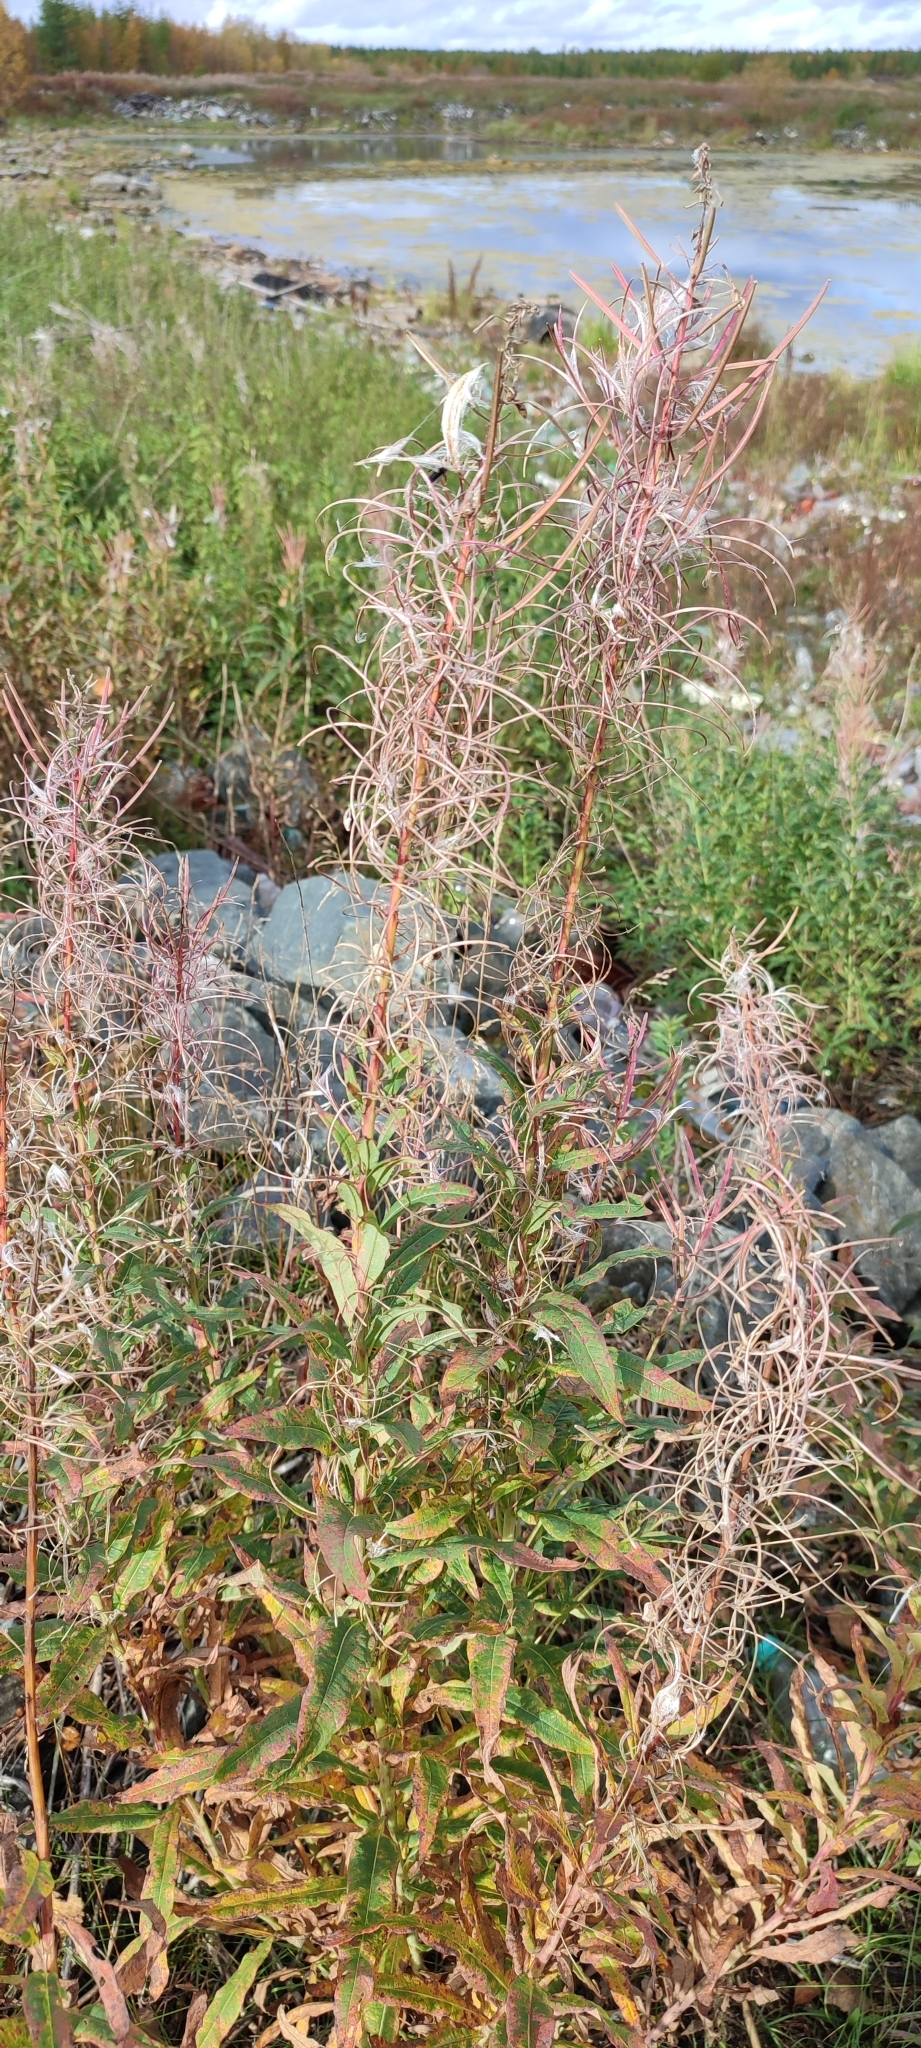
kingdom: Plantae
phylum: Tracheophyta
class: Magnoliopsida
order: Myrtales
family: Onagraceae
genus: Chamaenerion
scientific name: Chamaenerion angustifolium
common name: Fireweed
